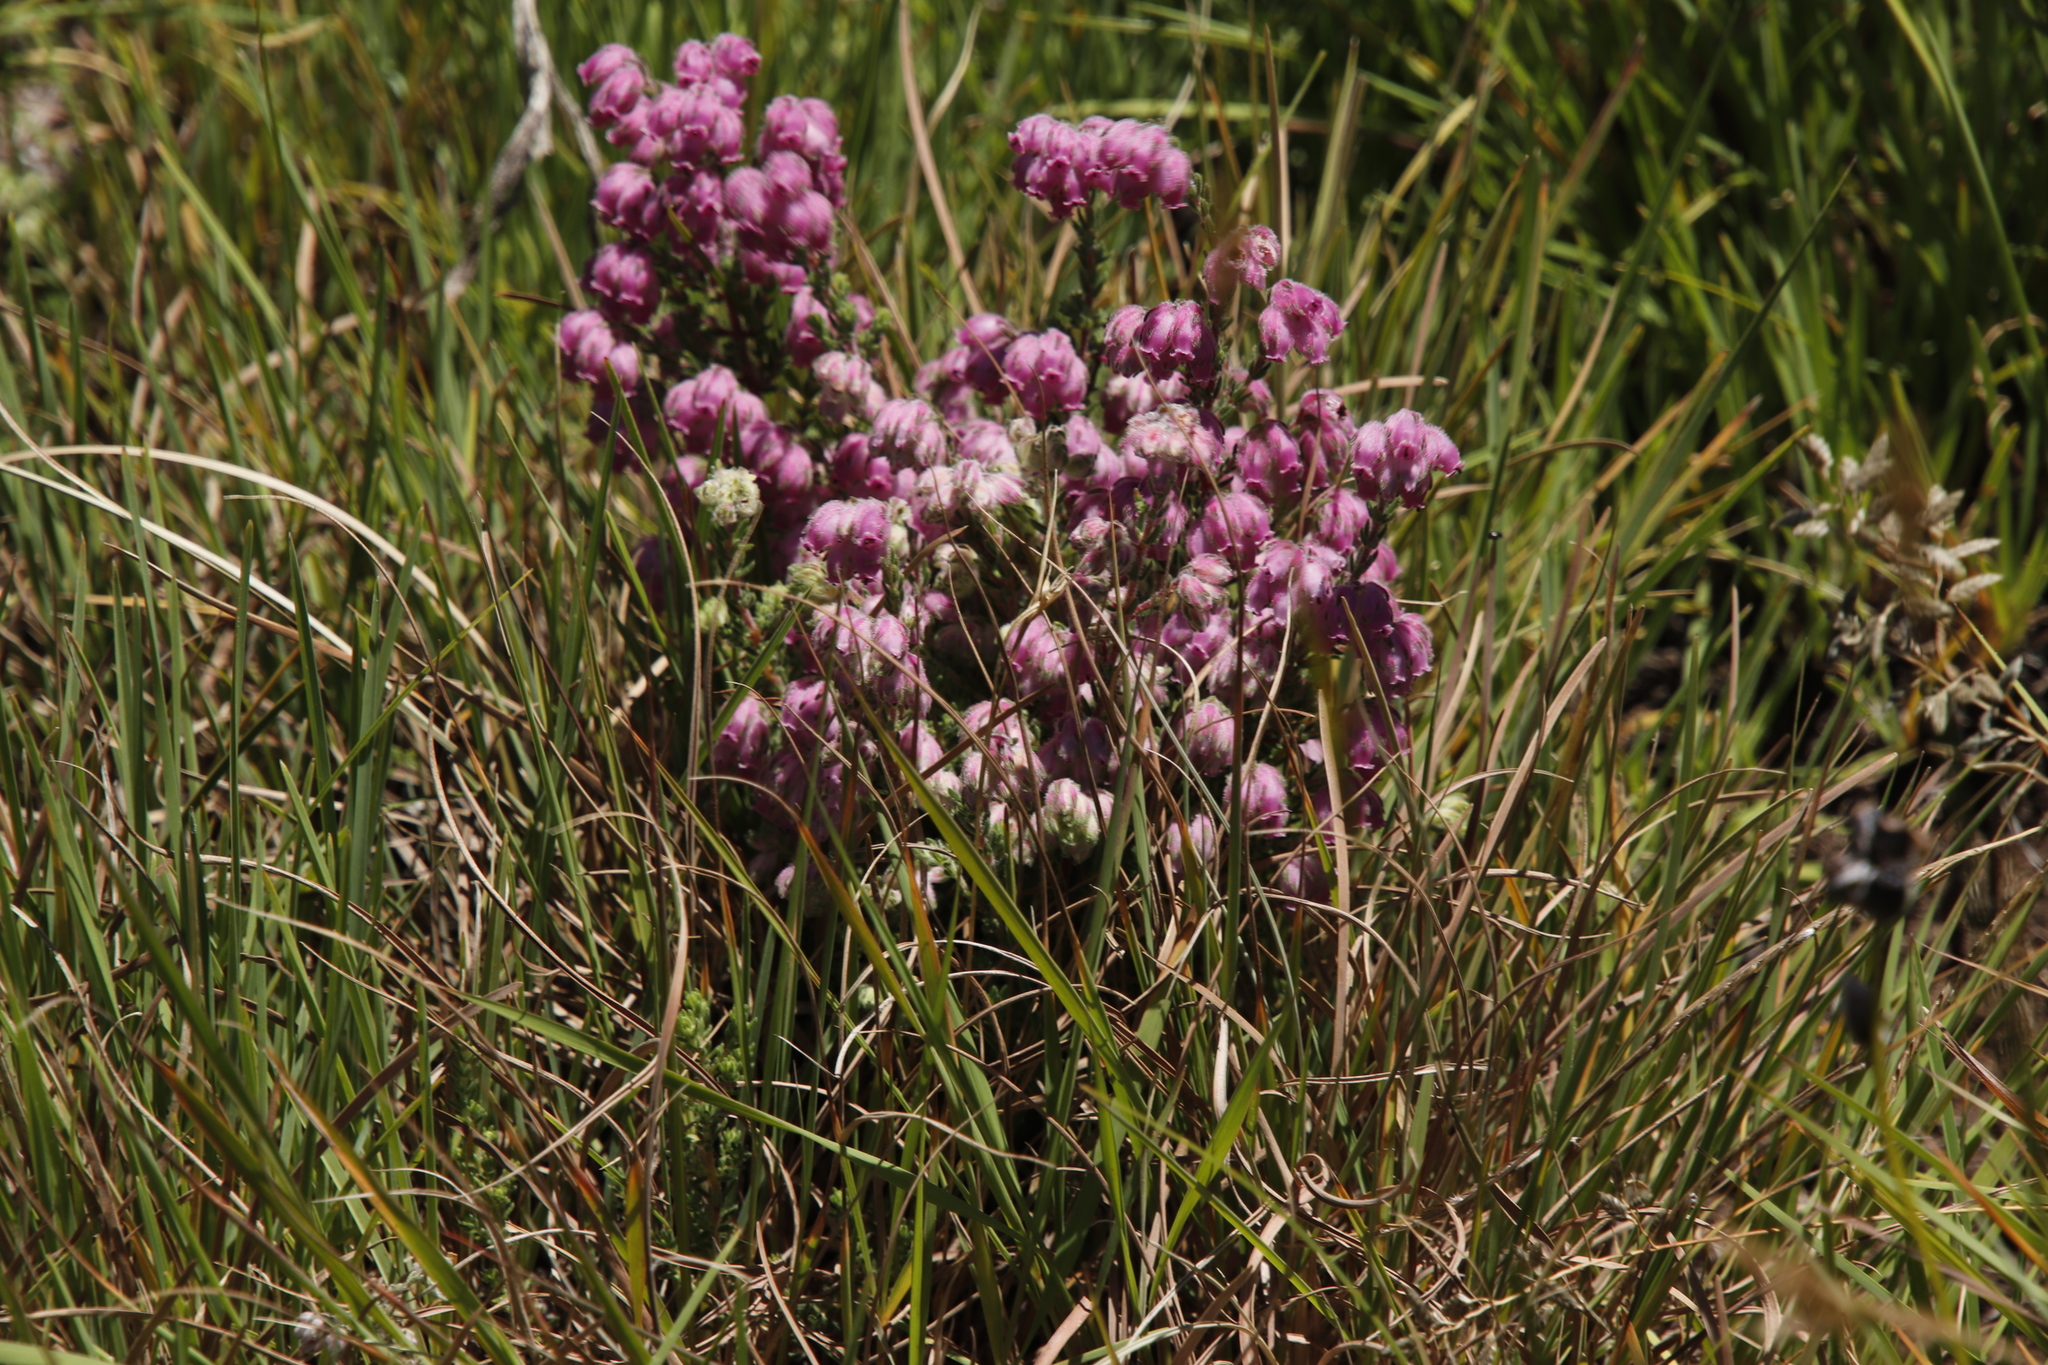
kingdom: Plantae
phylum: Tracheophyta
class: Magnoliopsida
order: Ericales
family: Ericaceae
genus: Erica
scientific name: Erica cooperi
